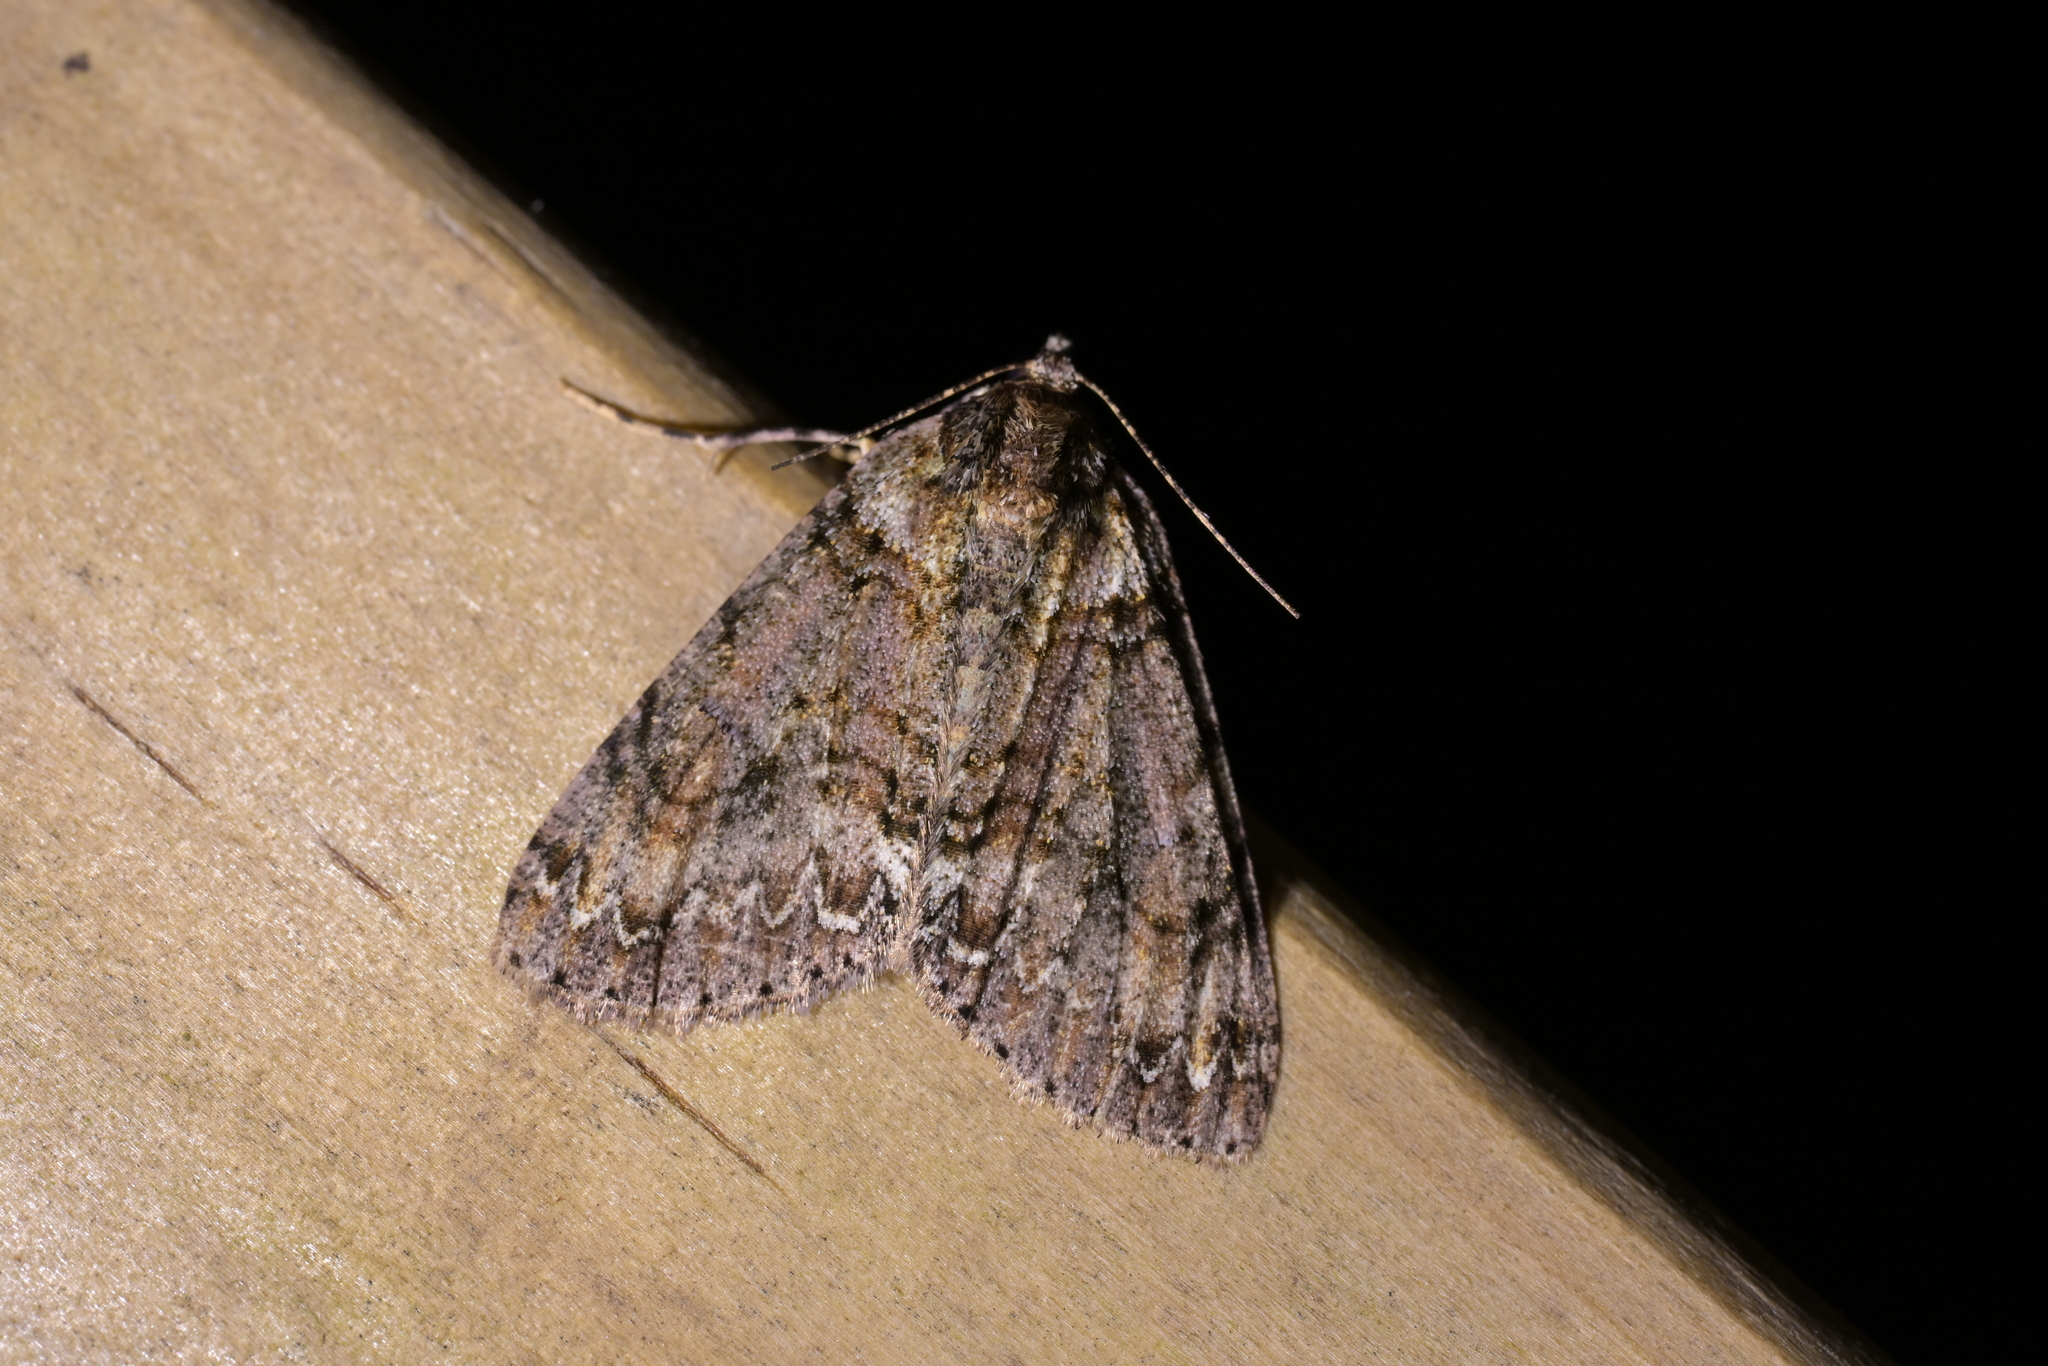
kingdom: Animalia
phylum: Arthropoda
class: Insecta
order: Lepidoptera
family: Geometridae
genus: Pseudocoremia
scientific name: Pseudocoremia suavis
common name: Common forest looper
